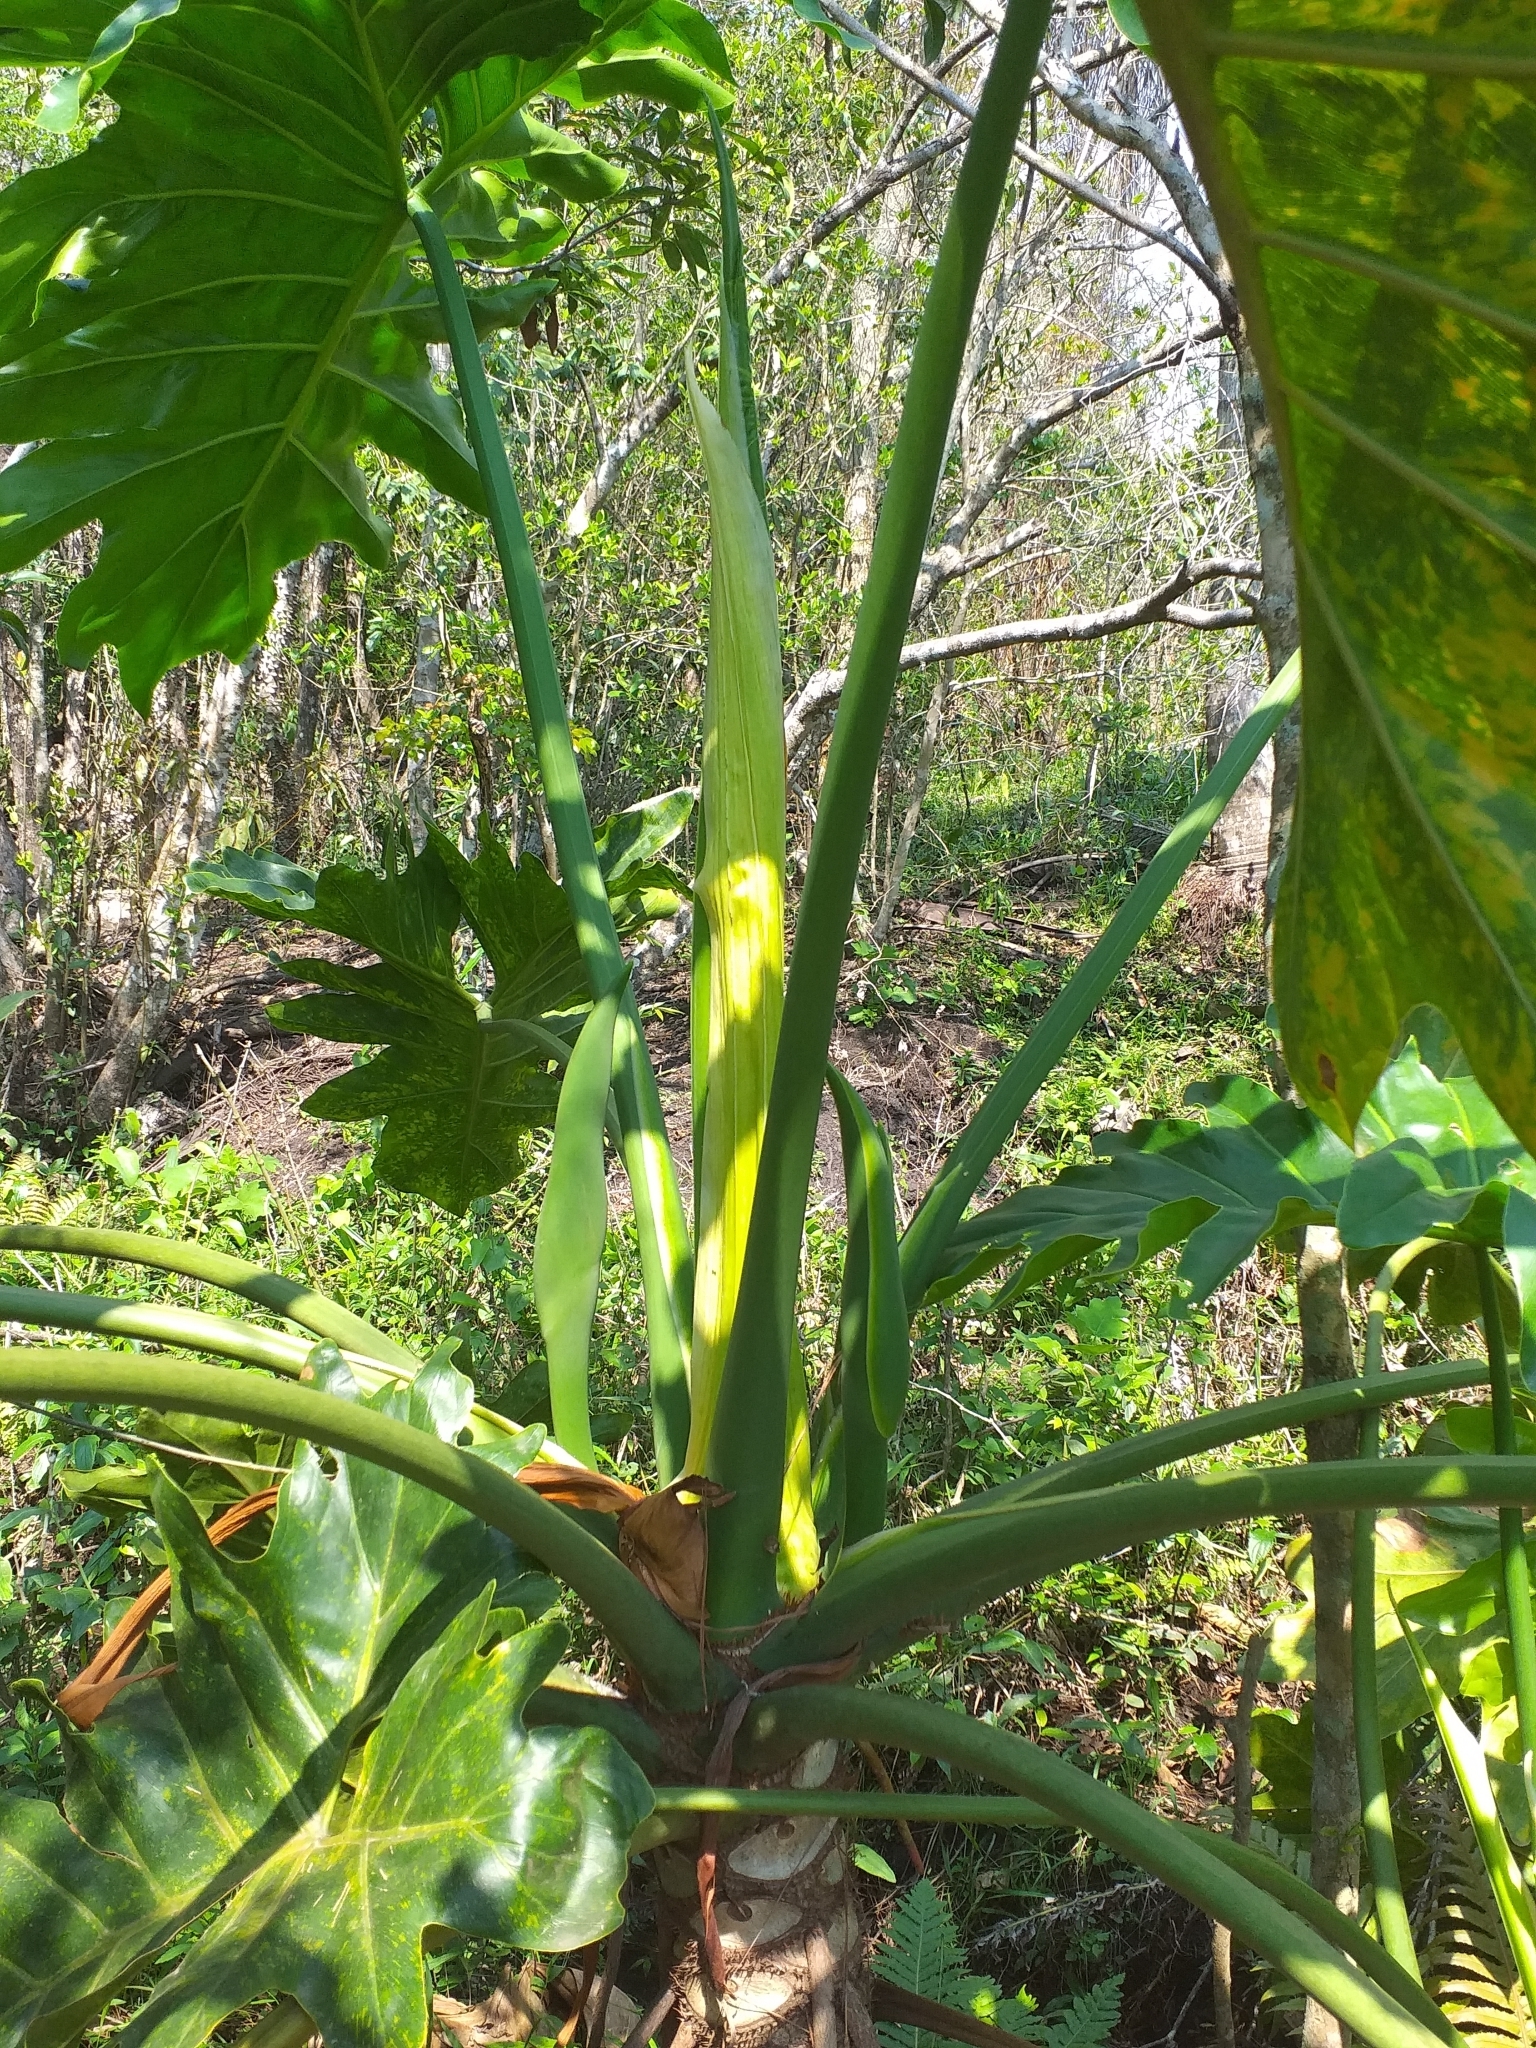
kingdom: Plantae
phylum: Tracheophyta
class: Liliopsida
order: Alismatales
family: Araceae
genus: Thaumatophyllum
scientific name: Thaumatophyllum bipinnatifidum
